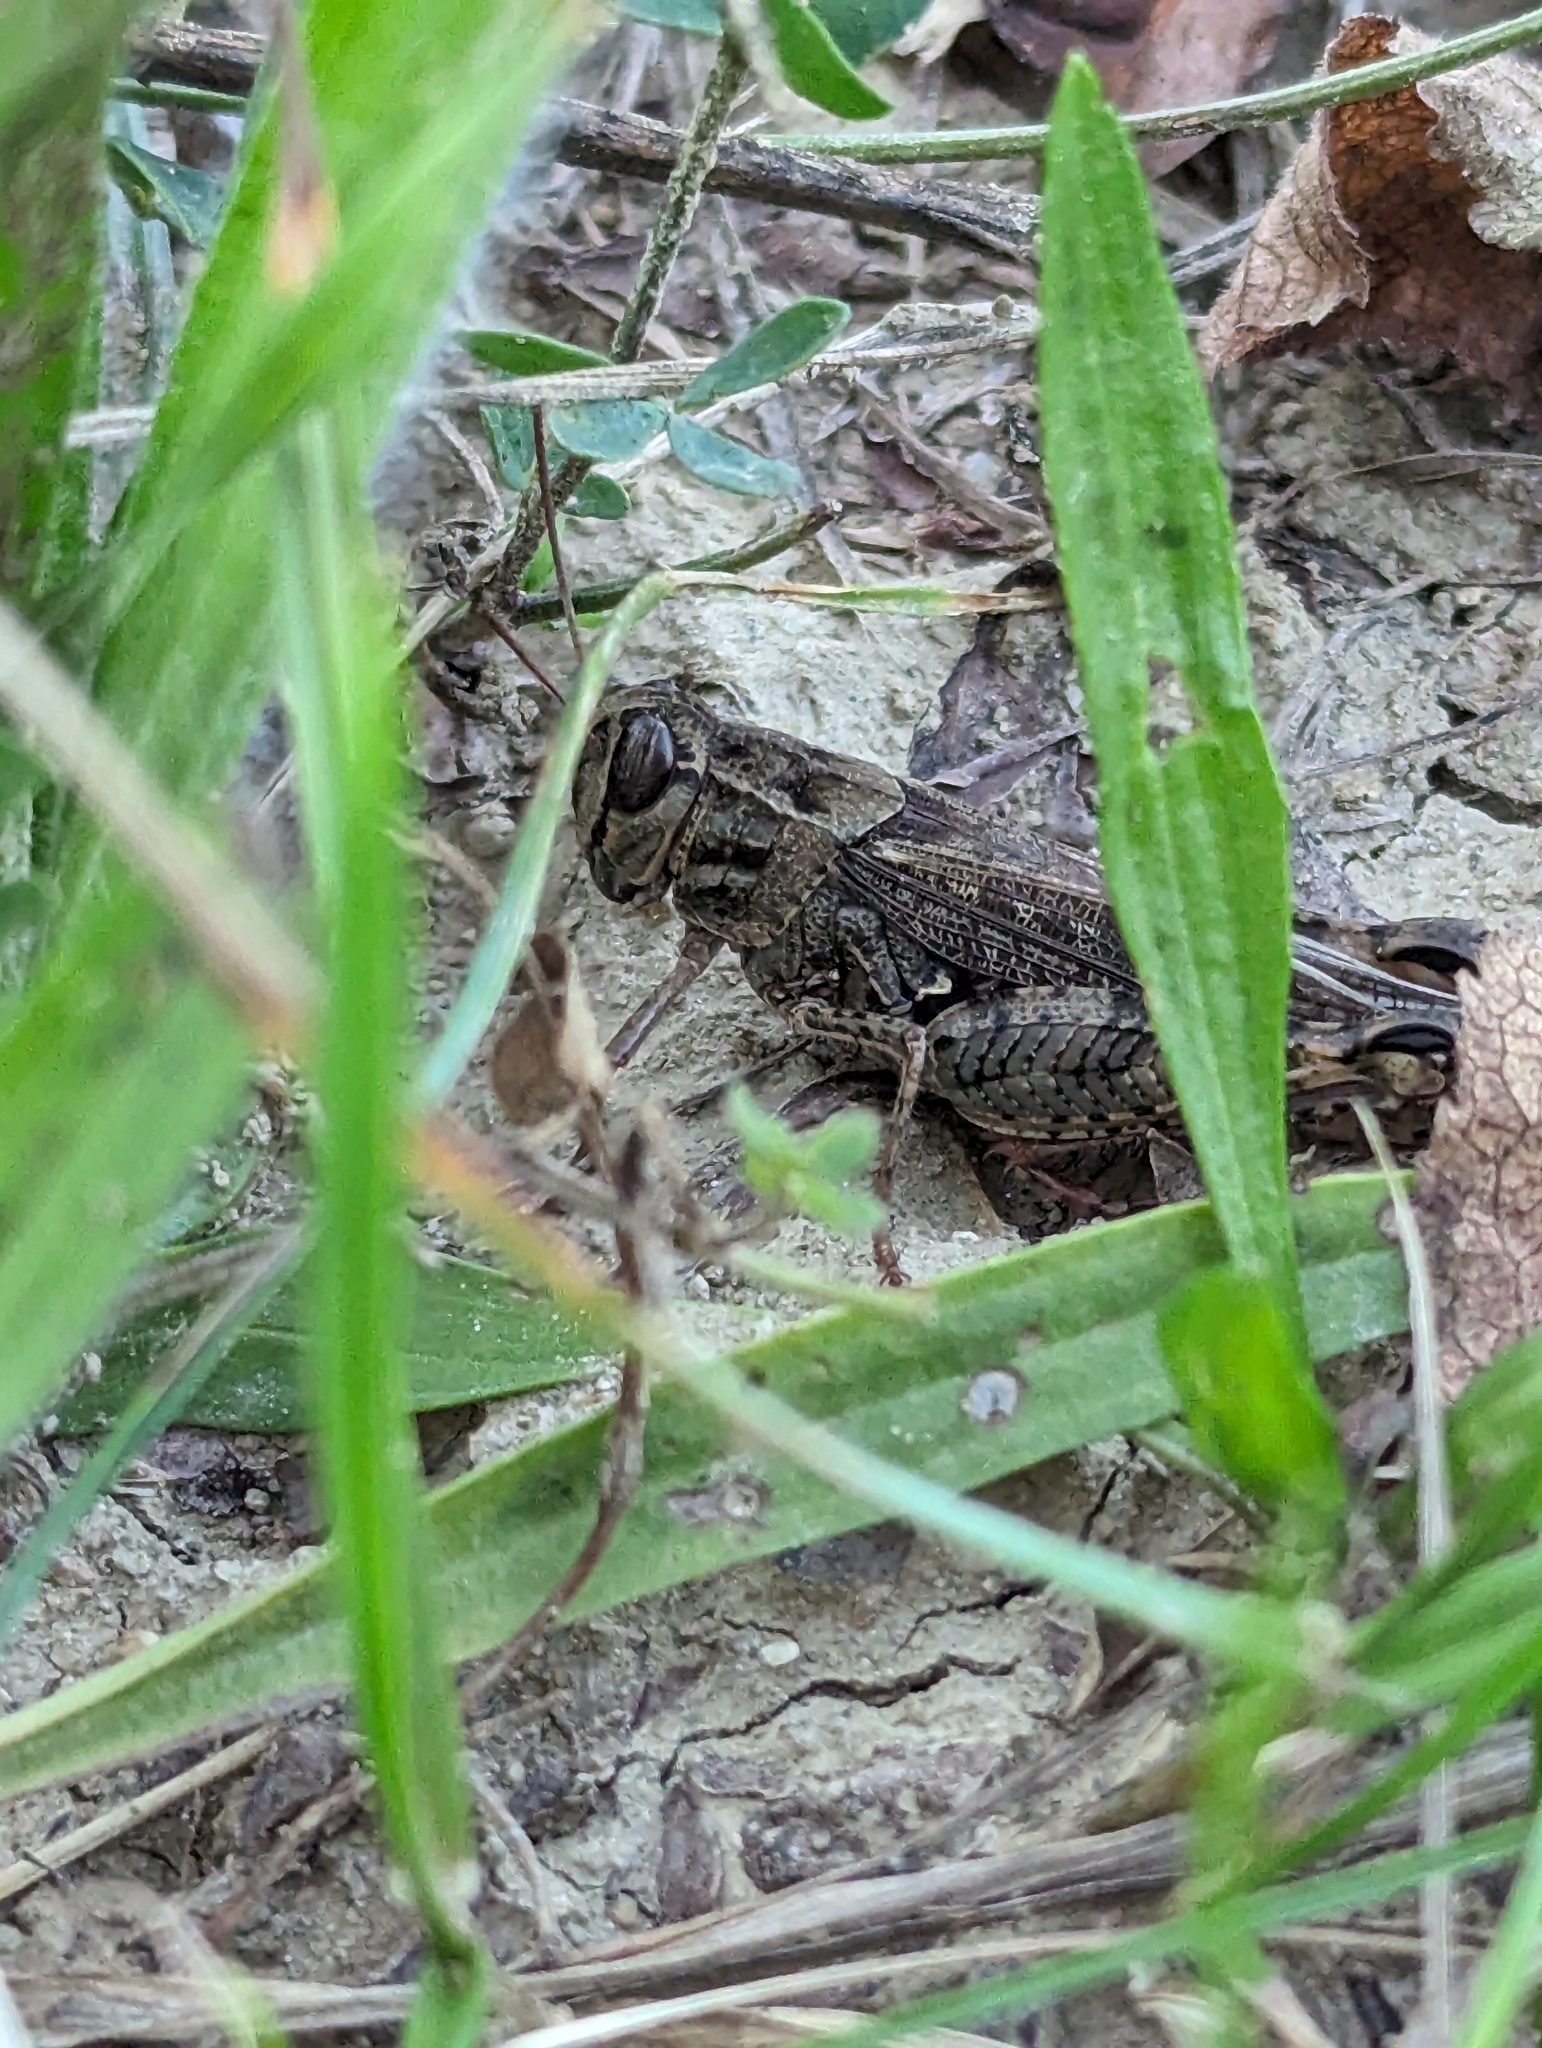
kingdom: Animalia
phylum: Arthropoda
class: Insecta
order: Orthoptera
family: Acrididae
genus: Calliptamus
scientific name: Calliptamus italicus
